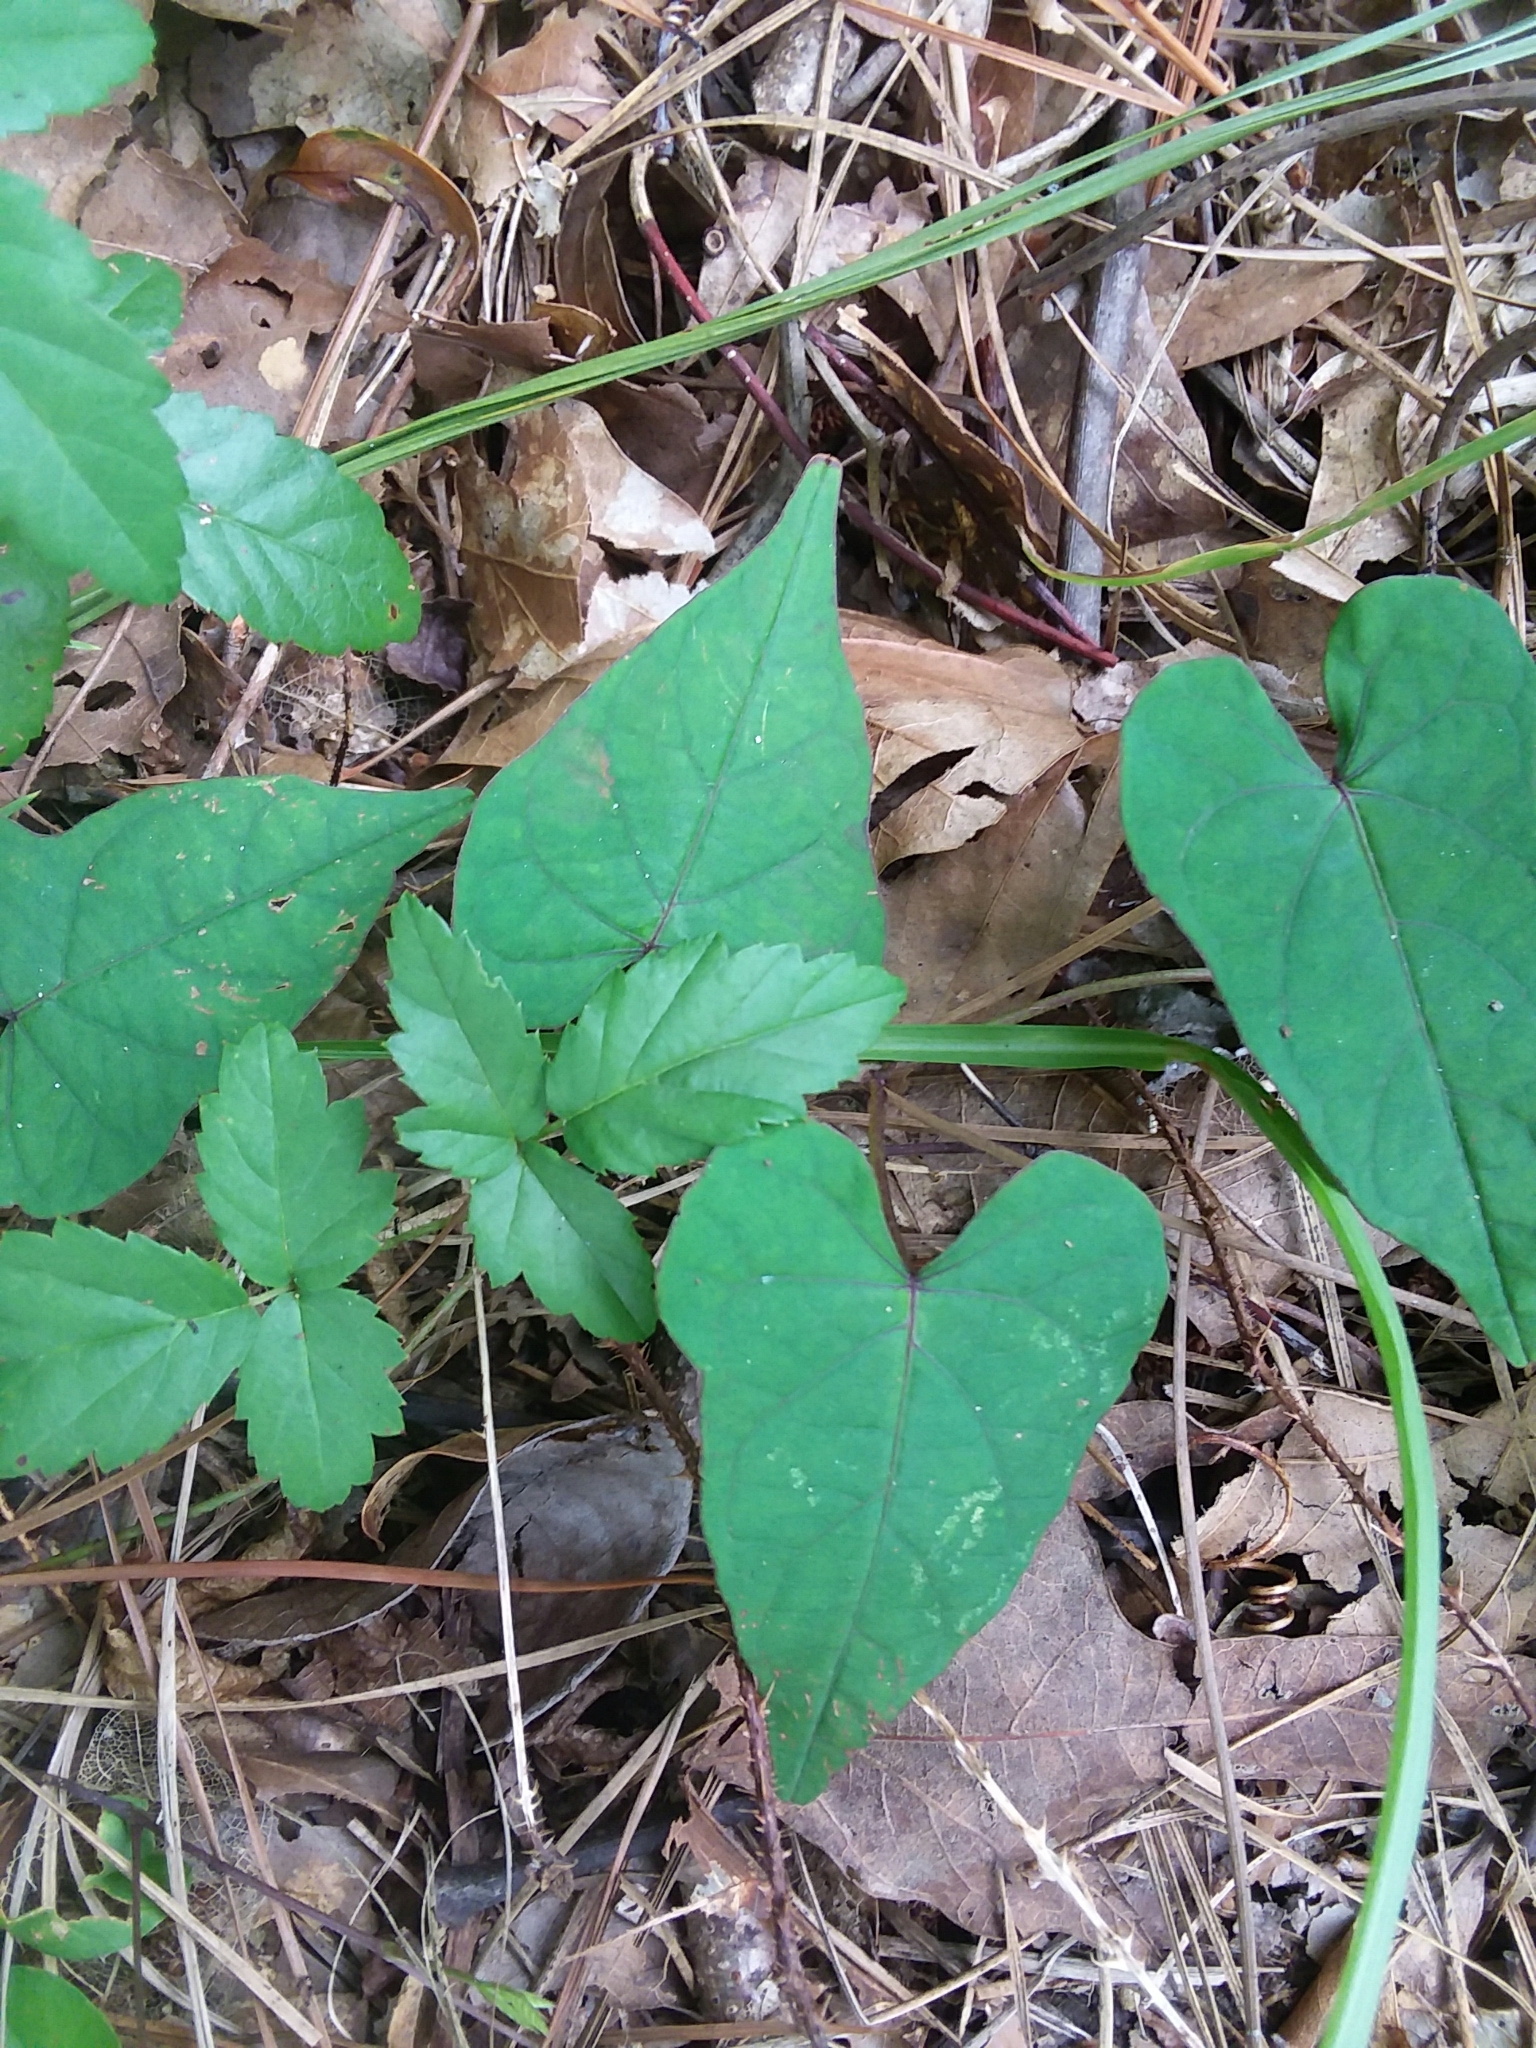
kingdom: Plantae
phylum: Tracheophyta
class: Magnoliopsida
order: Solanales
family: Convolvulaceae
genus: Ipomoea
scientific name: Ipomoea pandurata
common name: Man-of-the-earth
